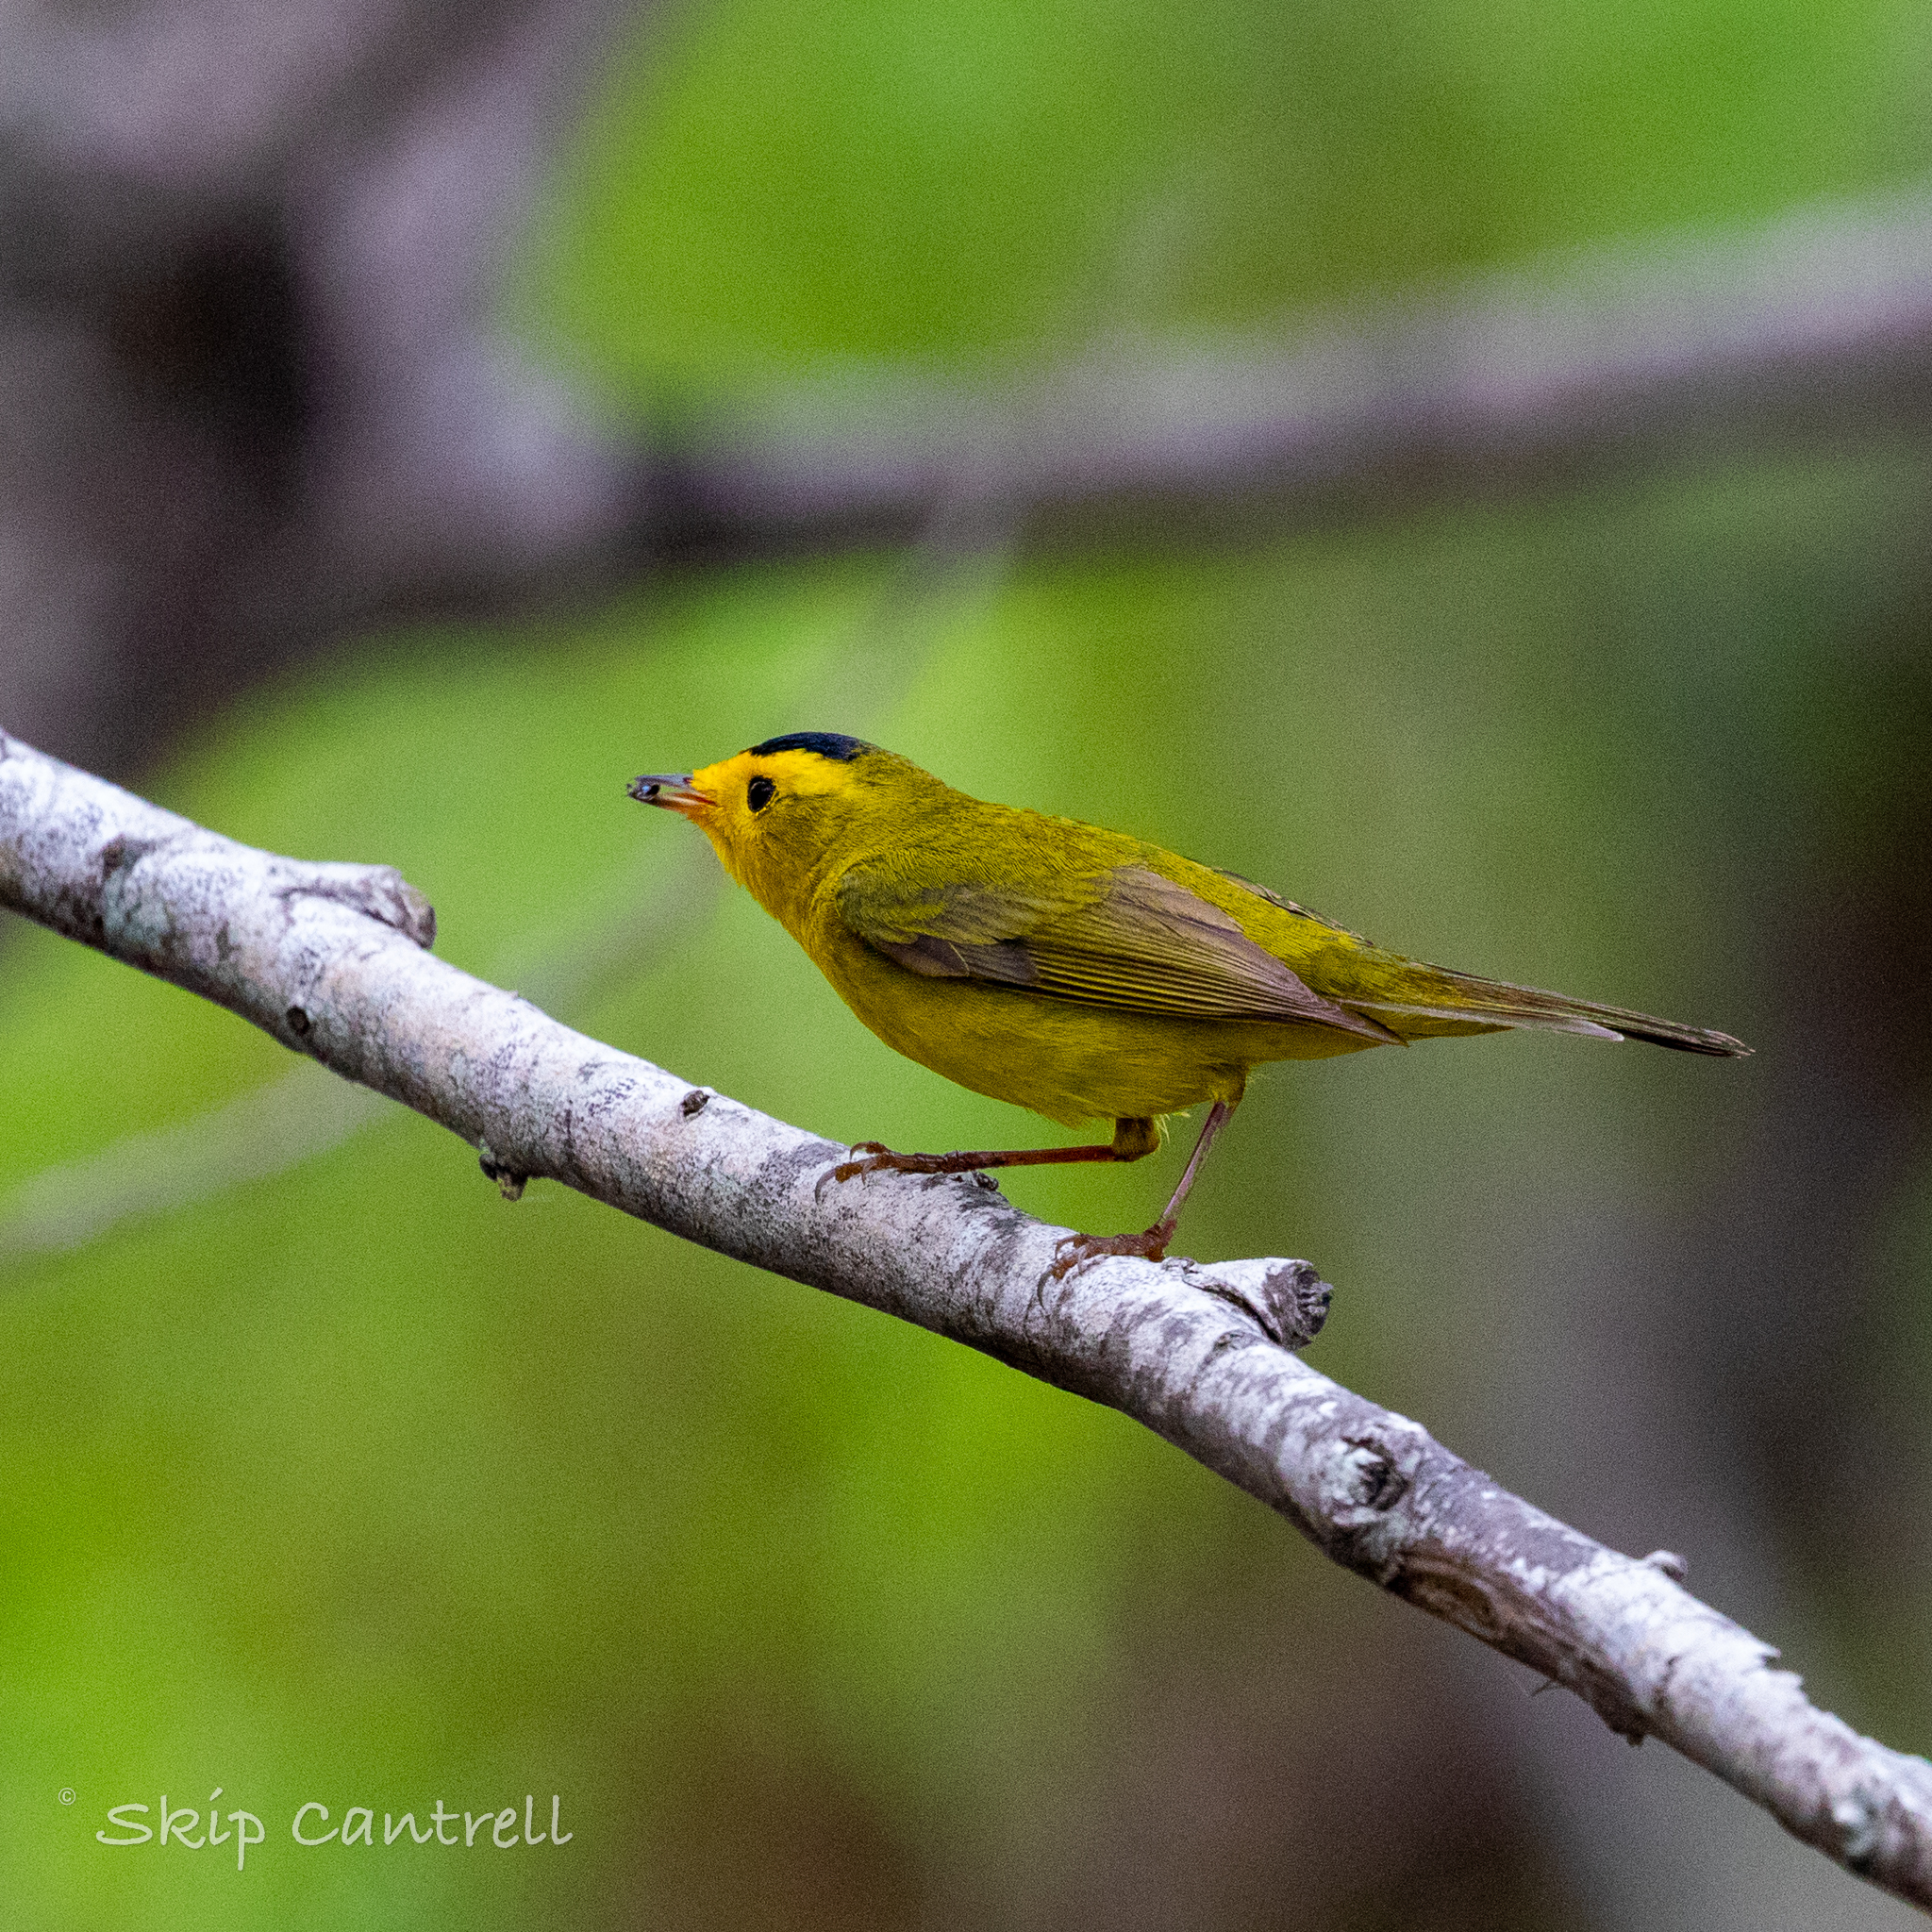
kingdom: Animalia
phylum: Chordata
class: Aves
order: Passeriformes
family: Parulidae
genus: Cardellina
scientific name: Cardellina pusilla
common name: Wilson's warbler
